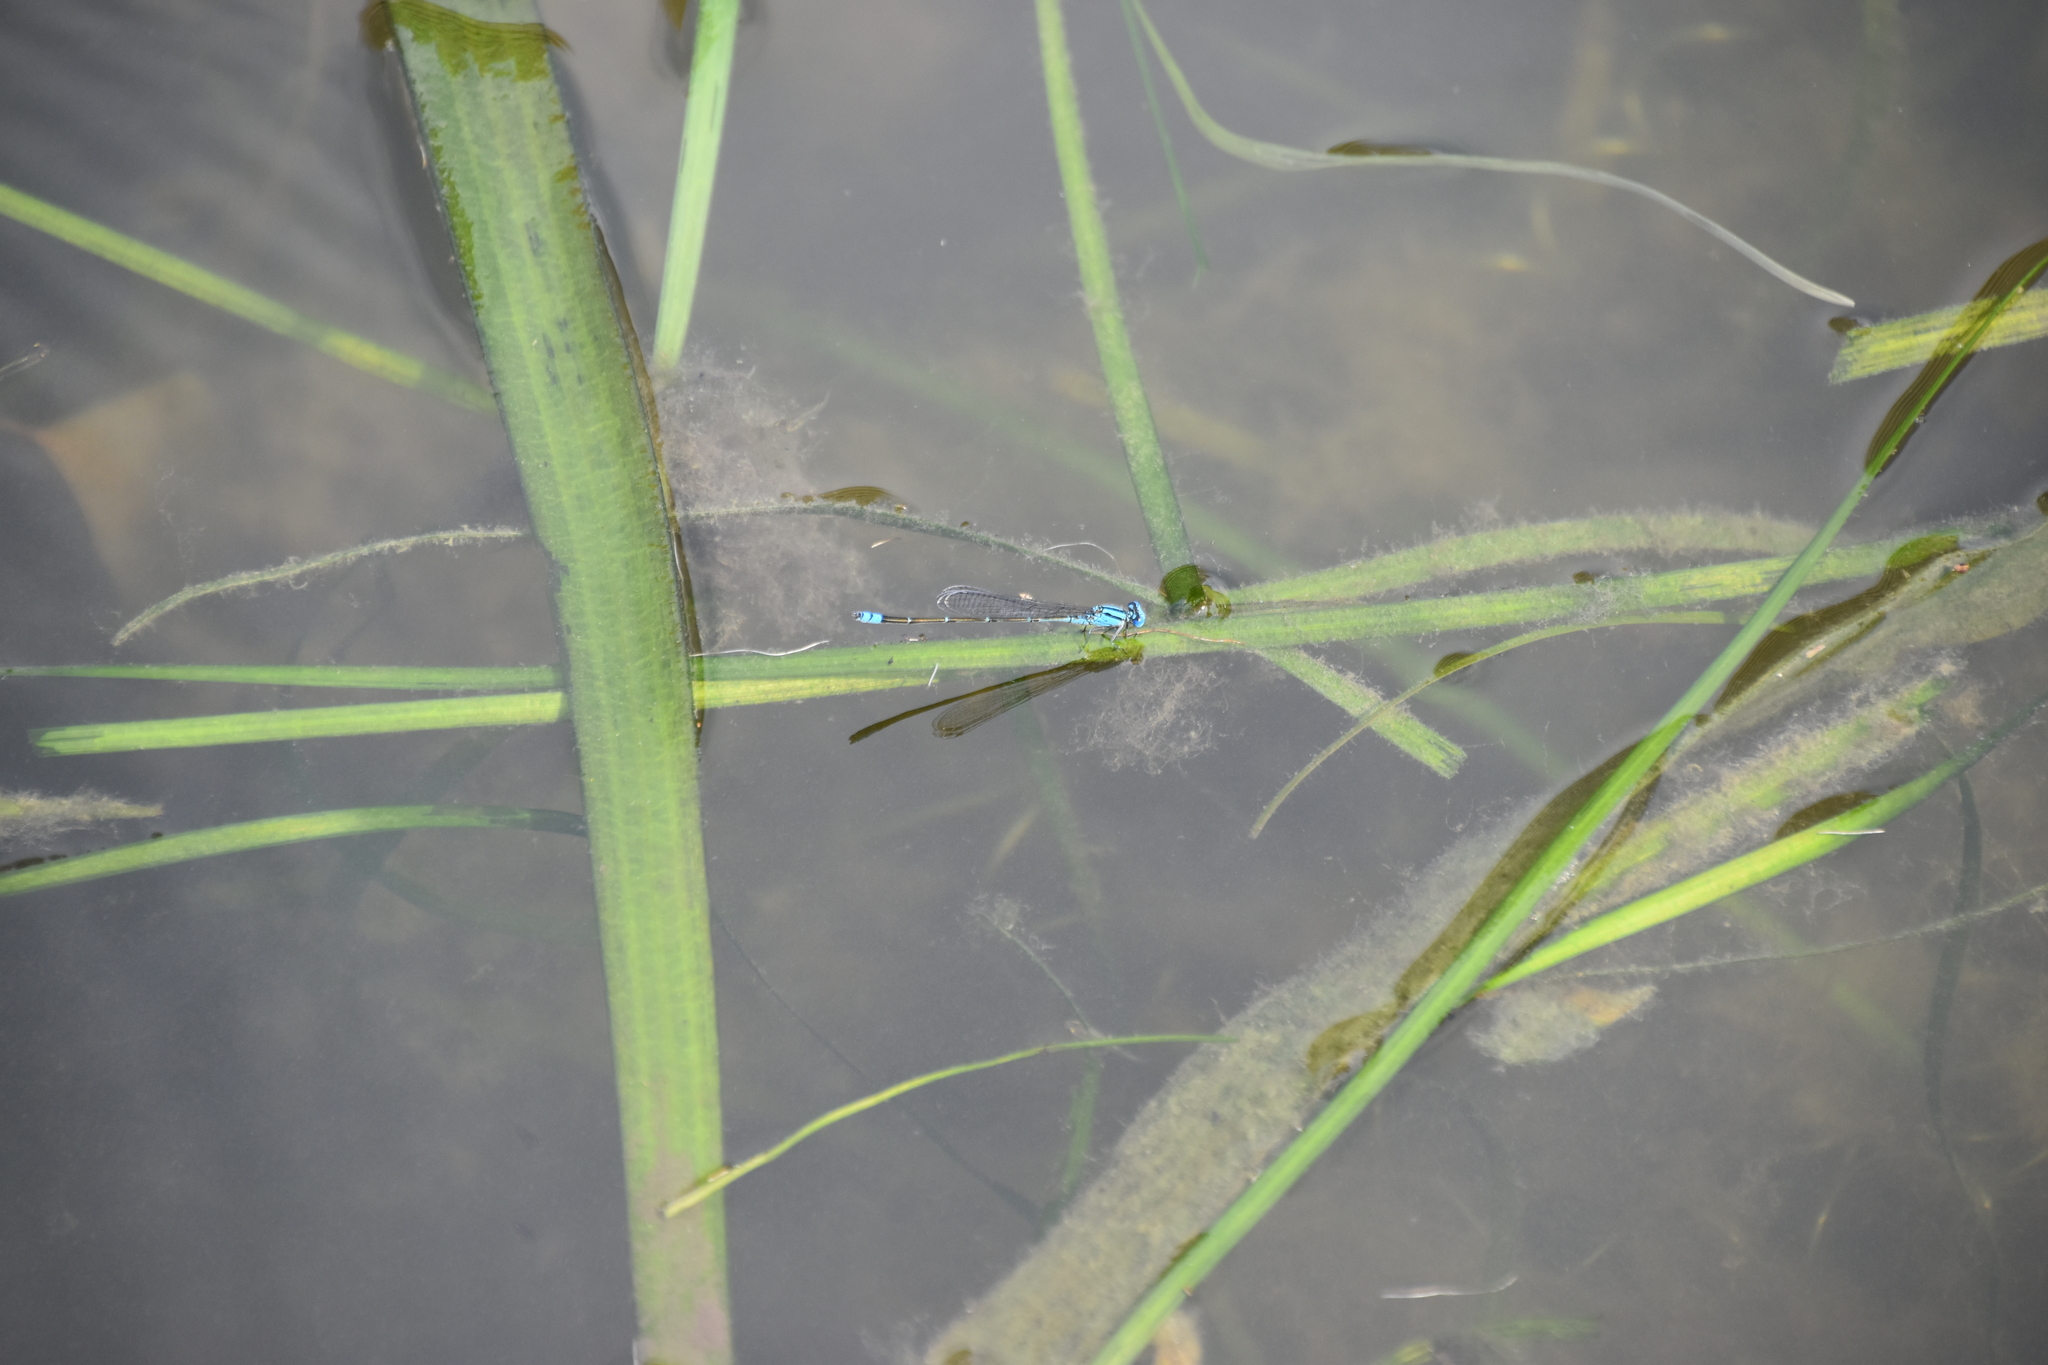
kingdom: Animalia
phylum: Arthropoda
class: Insecta
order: Odonata
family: Coenagrionidae
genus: Pseudagrion
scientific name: Pseudagrion microcephalum
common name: Blue riverdamsel
